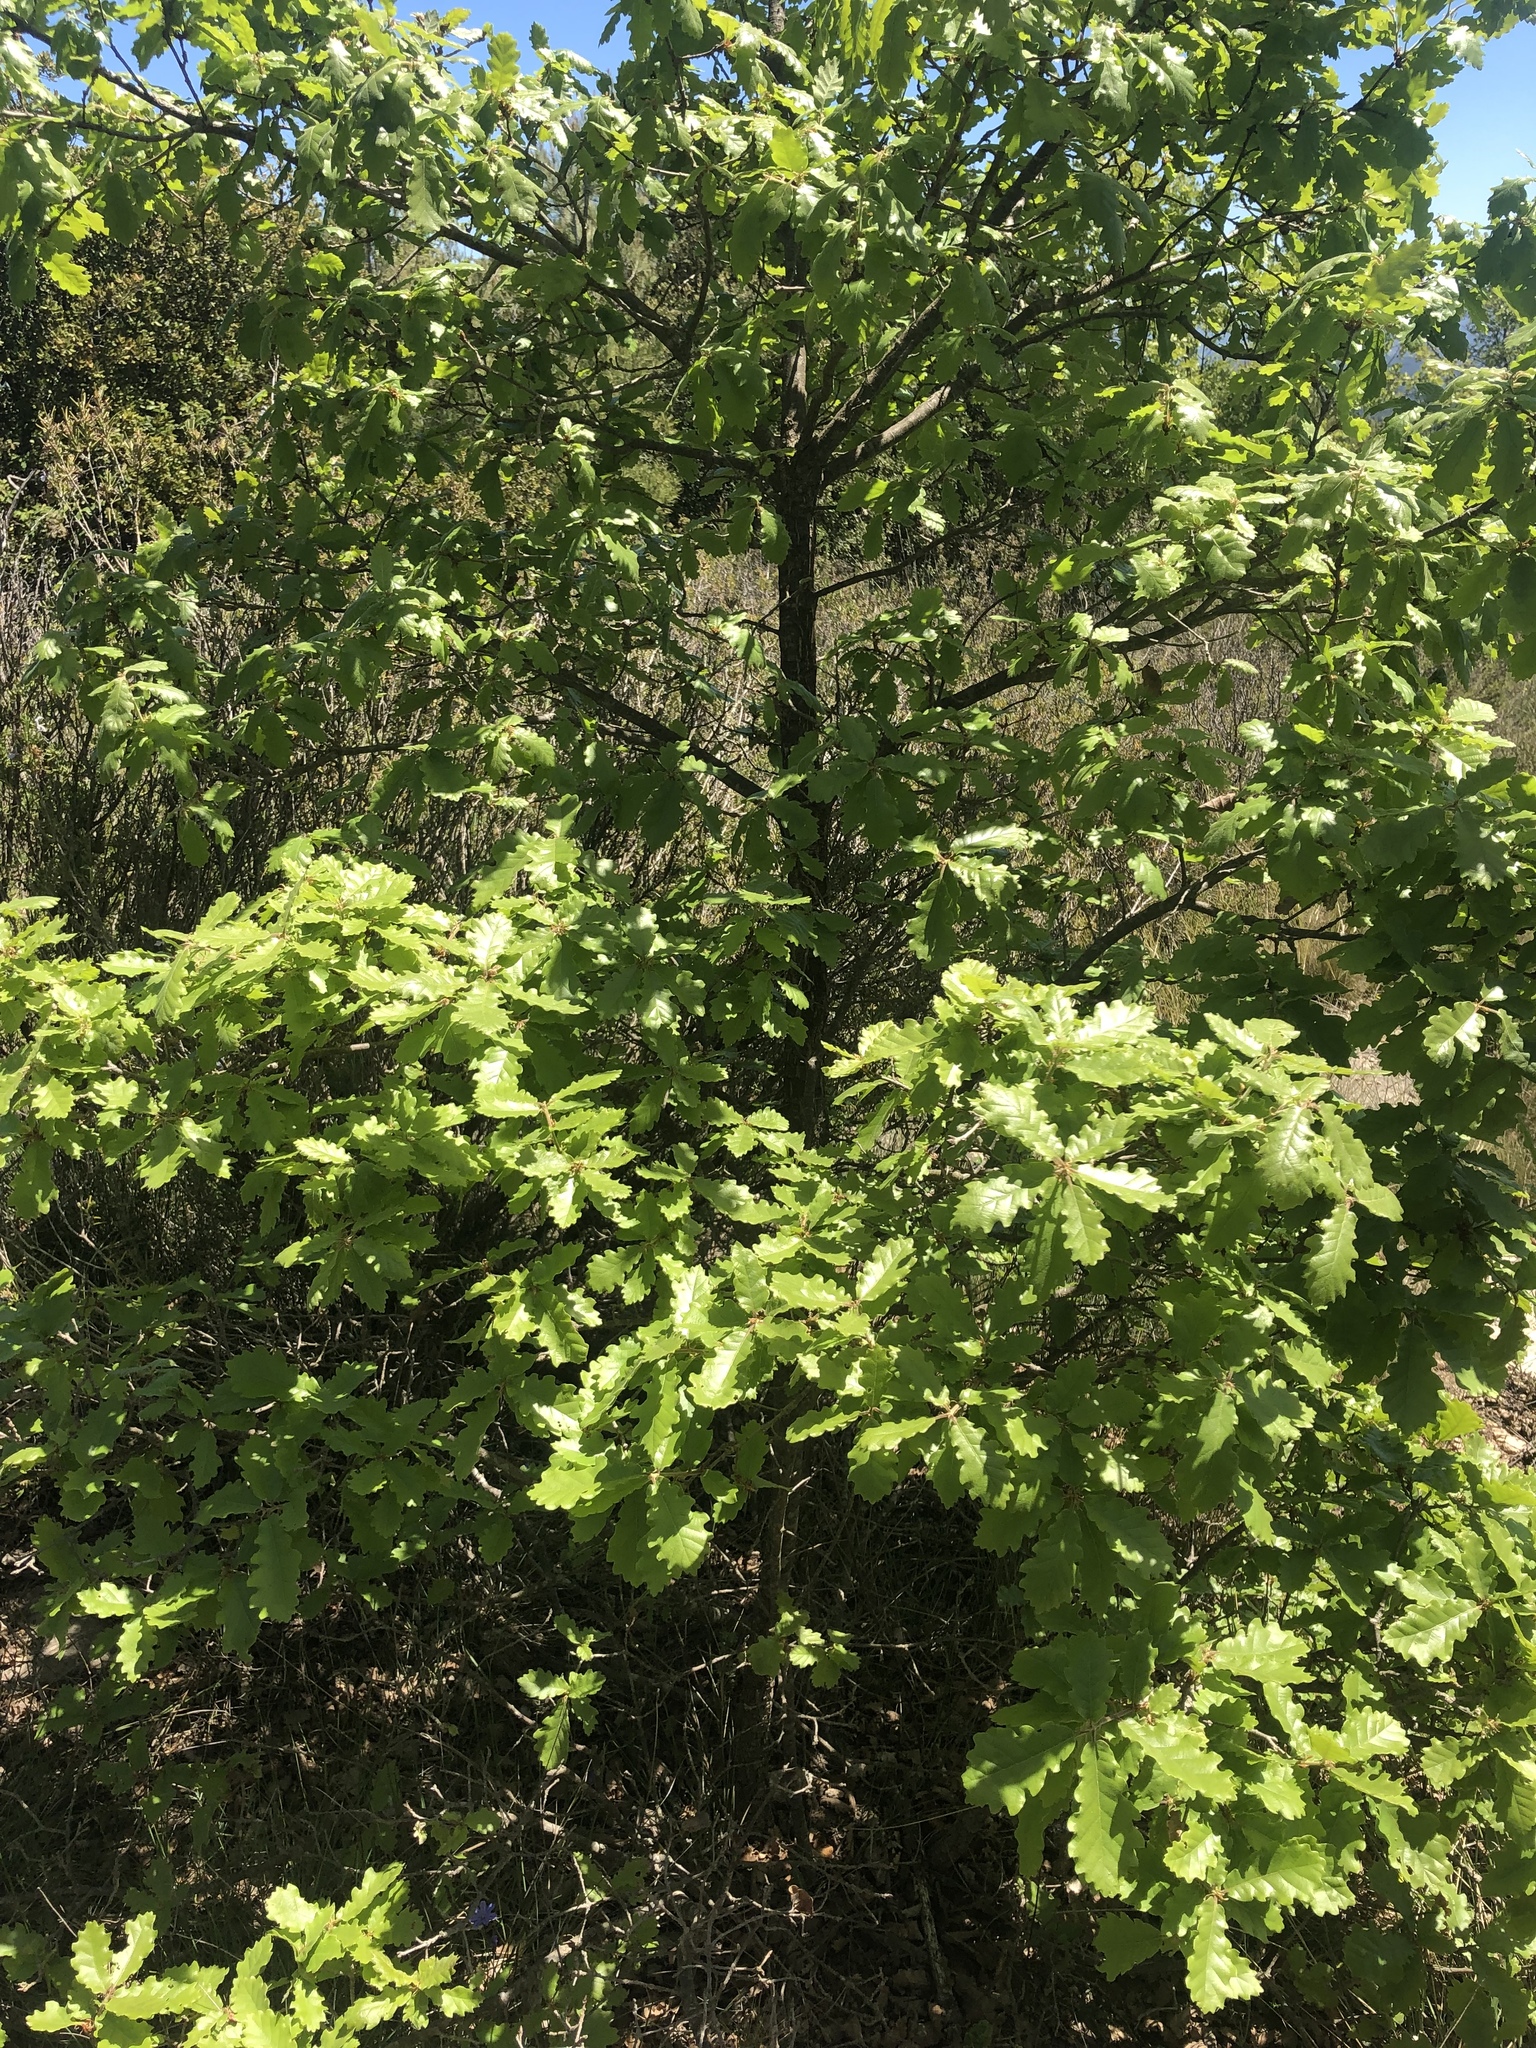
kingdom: Plantae
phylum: Tracheophyta
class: Magnoliopsida
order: Fagales
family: Fagaceae
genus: Quercus
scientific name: Quercus cerrioides
